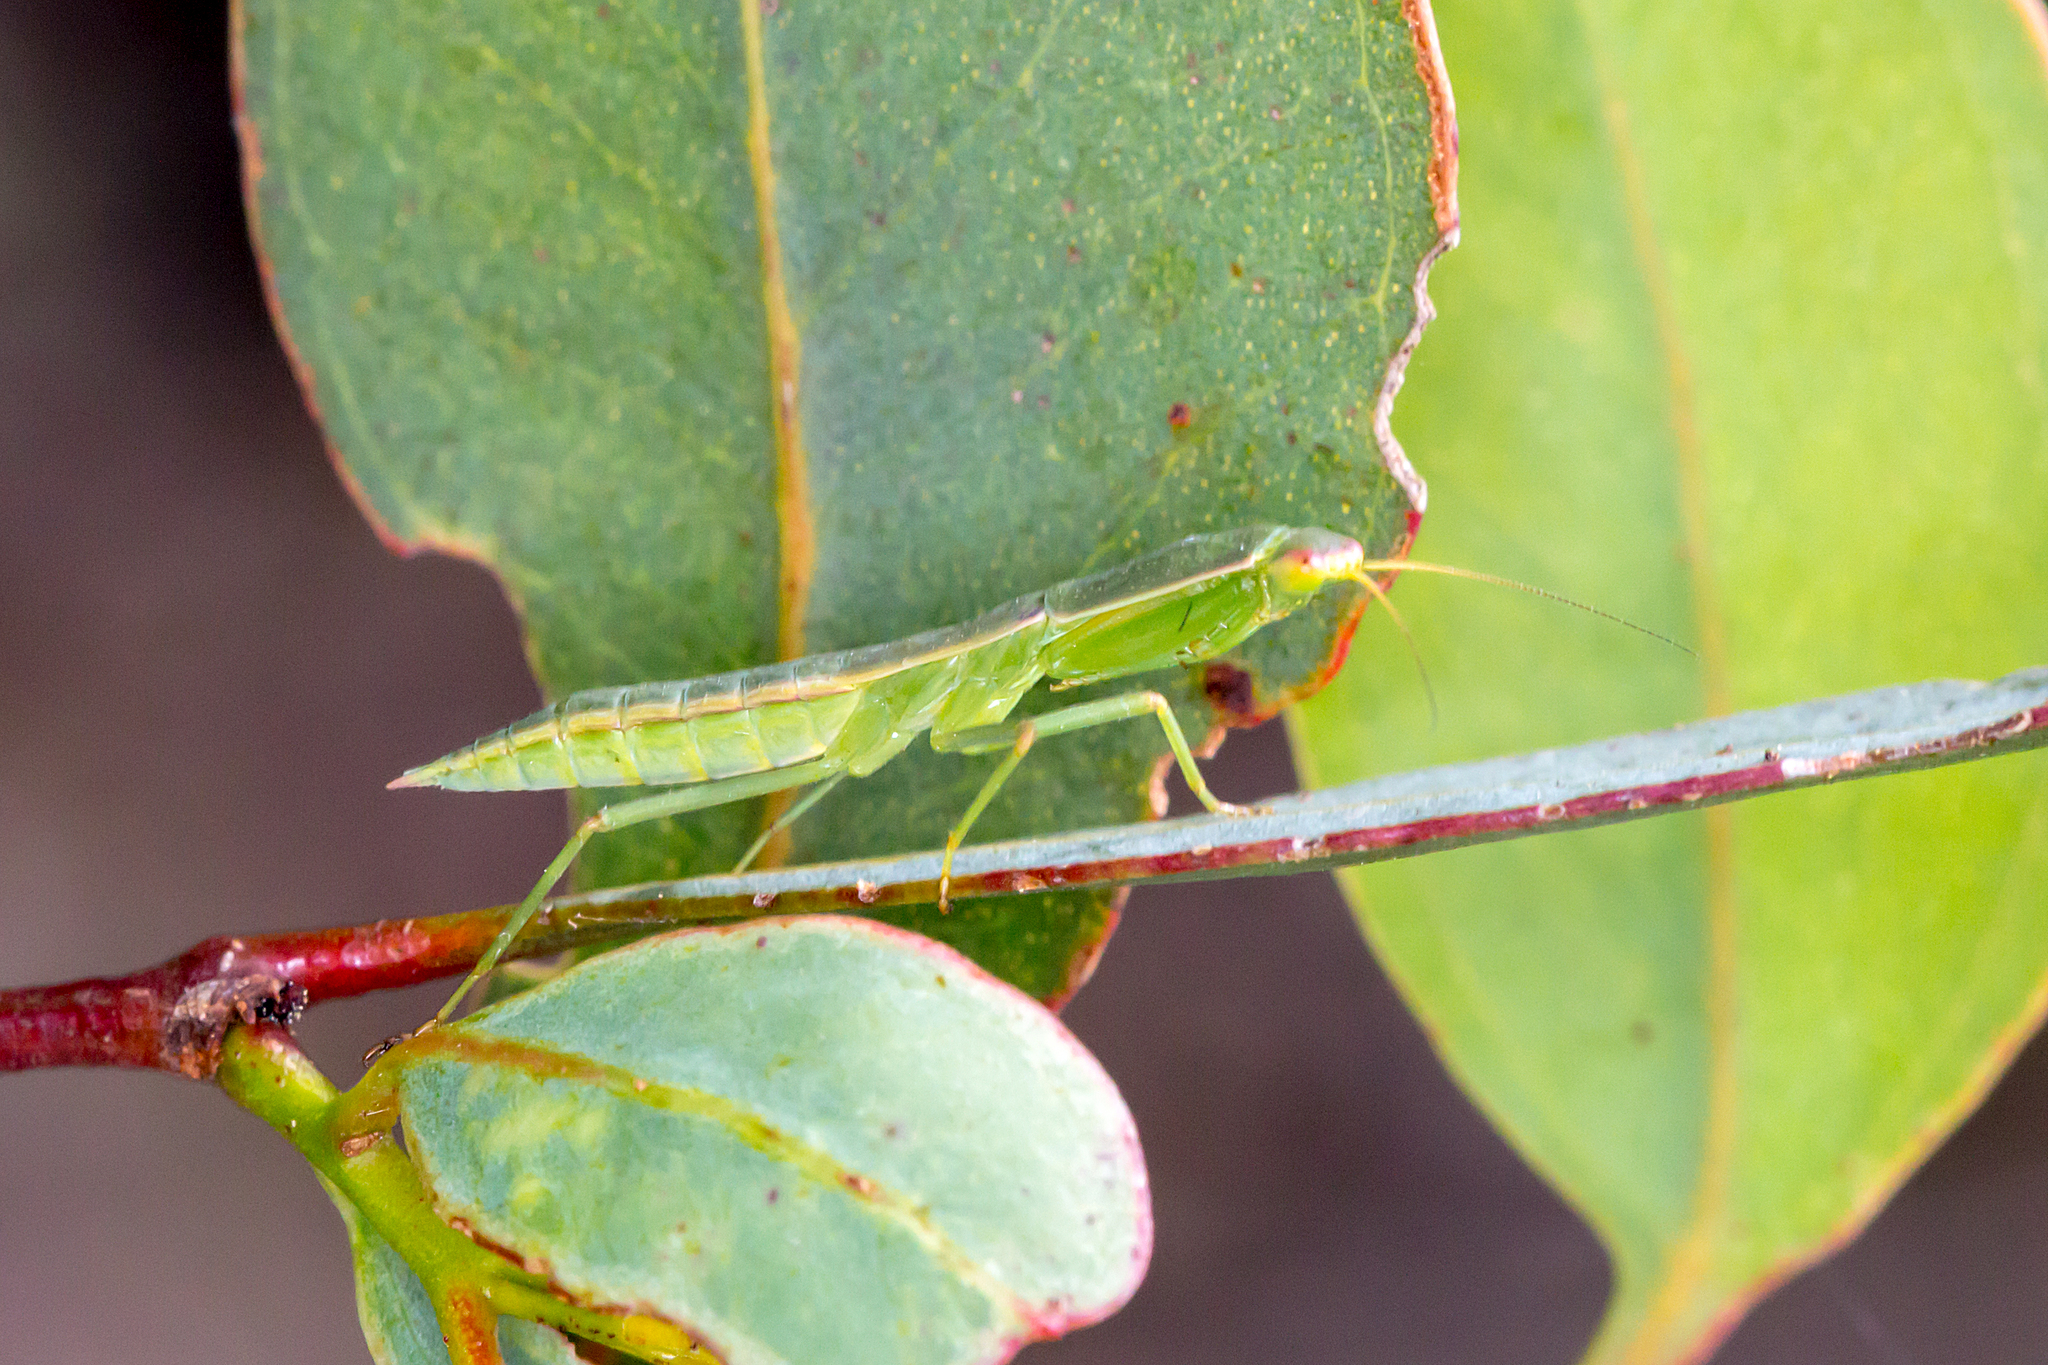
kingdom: Animalia
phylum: Arthropoda
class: Insecta
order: Mantodea
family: Mantidae
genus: Orthodera
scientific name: Orthodera ministralis
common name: Mantis
